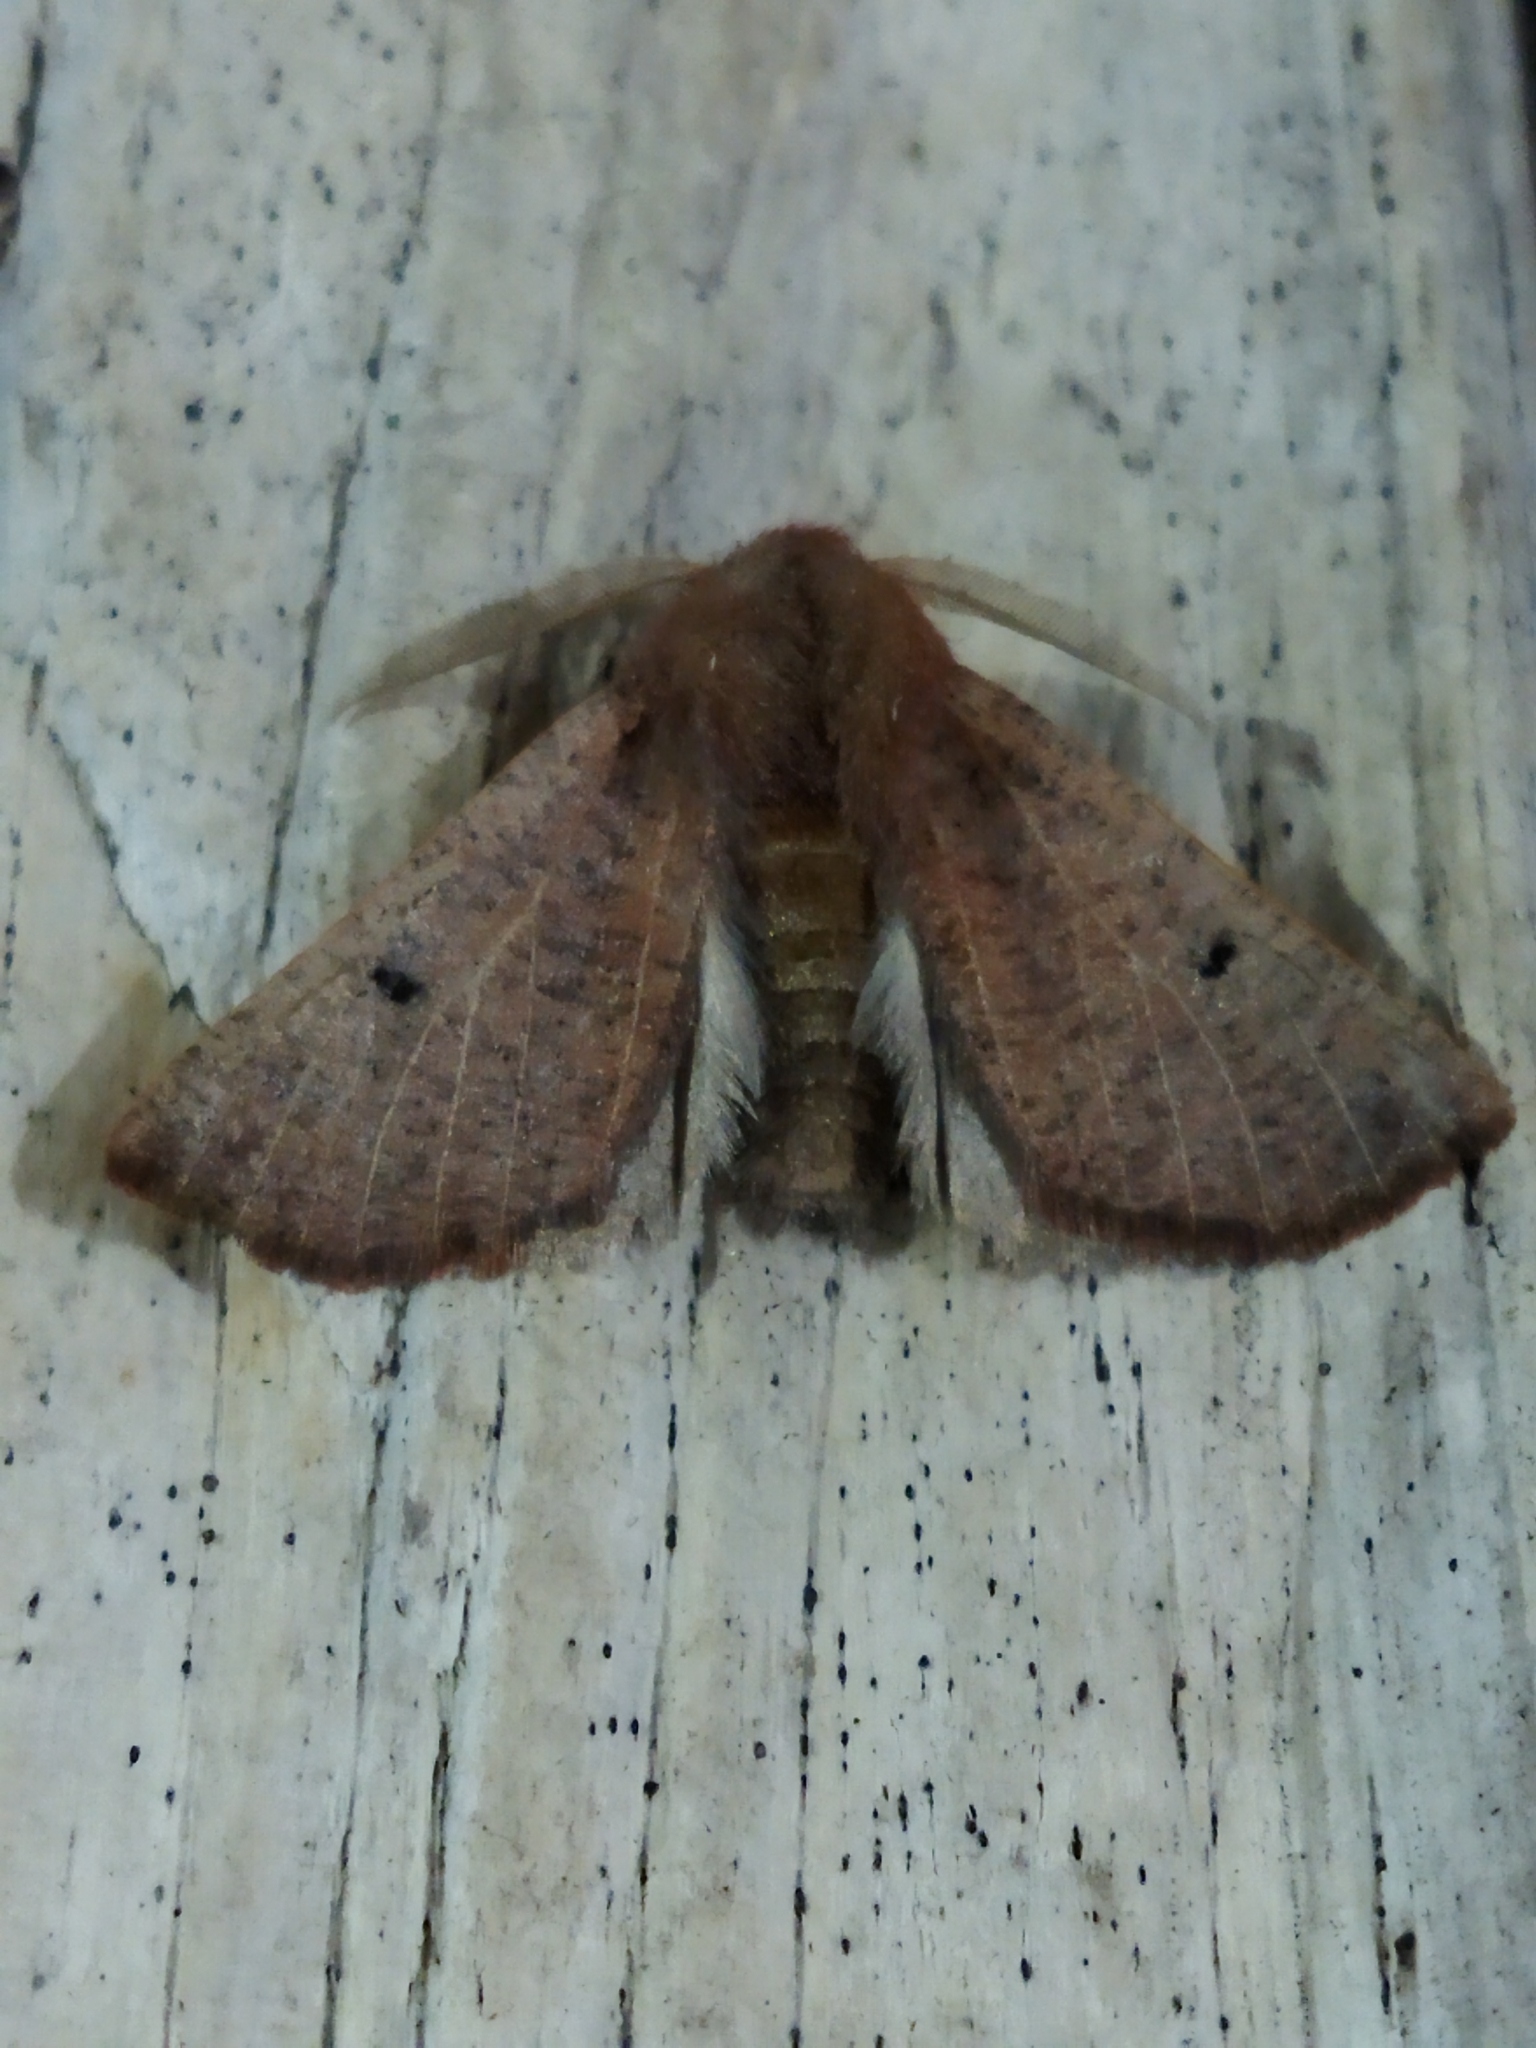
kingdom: Animalia
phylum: Arthropoda
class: Insecta
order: Lepidoptera
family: Geometridae
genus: Dasycorsa
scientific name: Dasycorsa modesta
